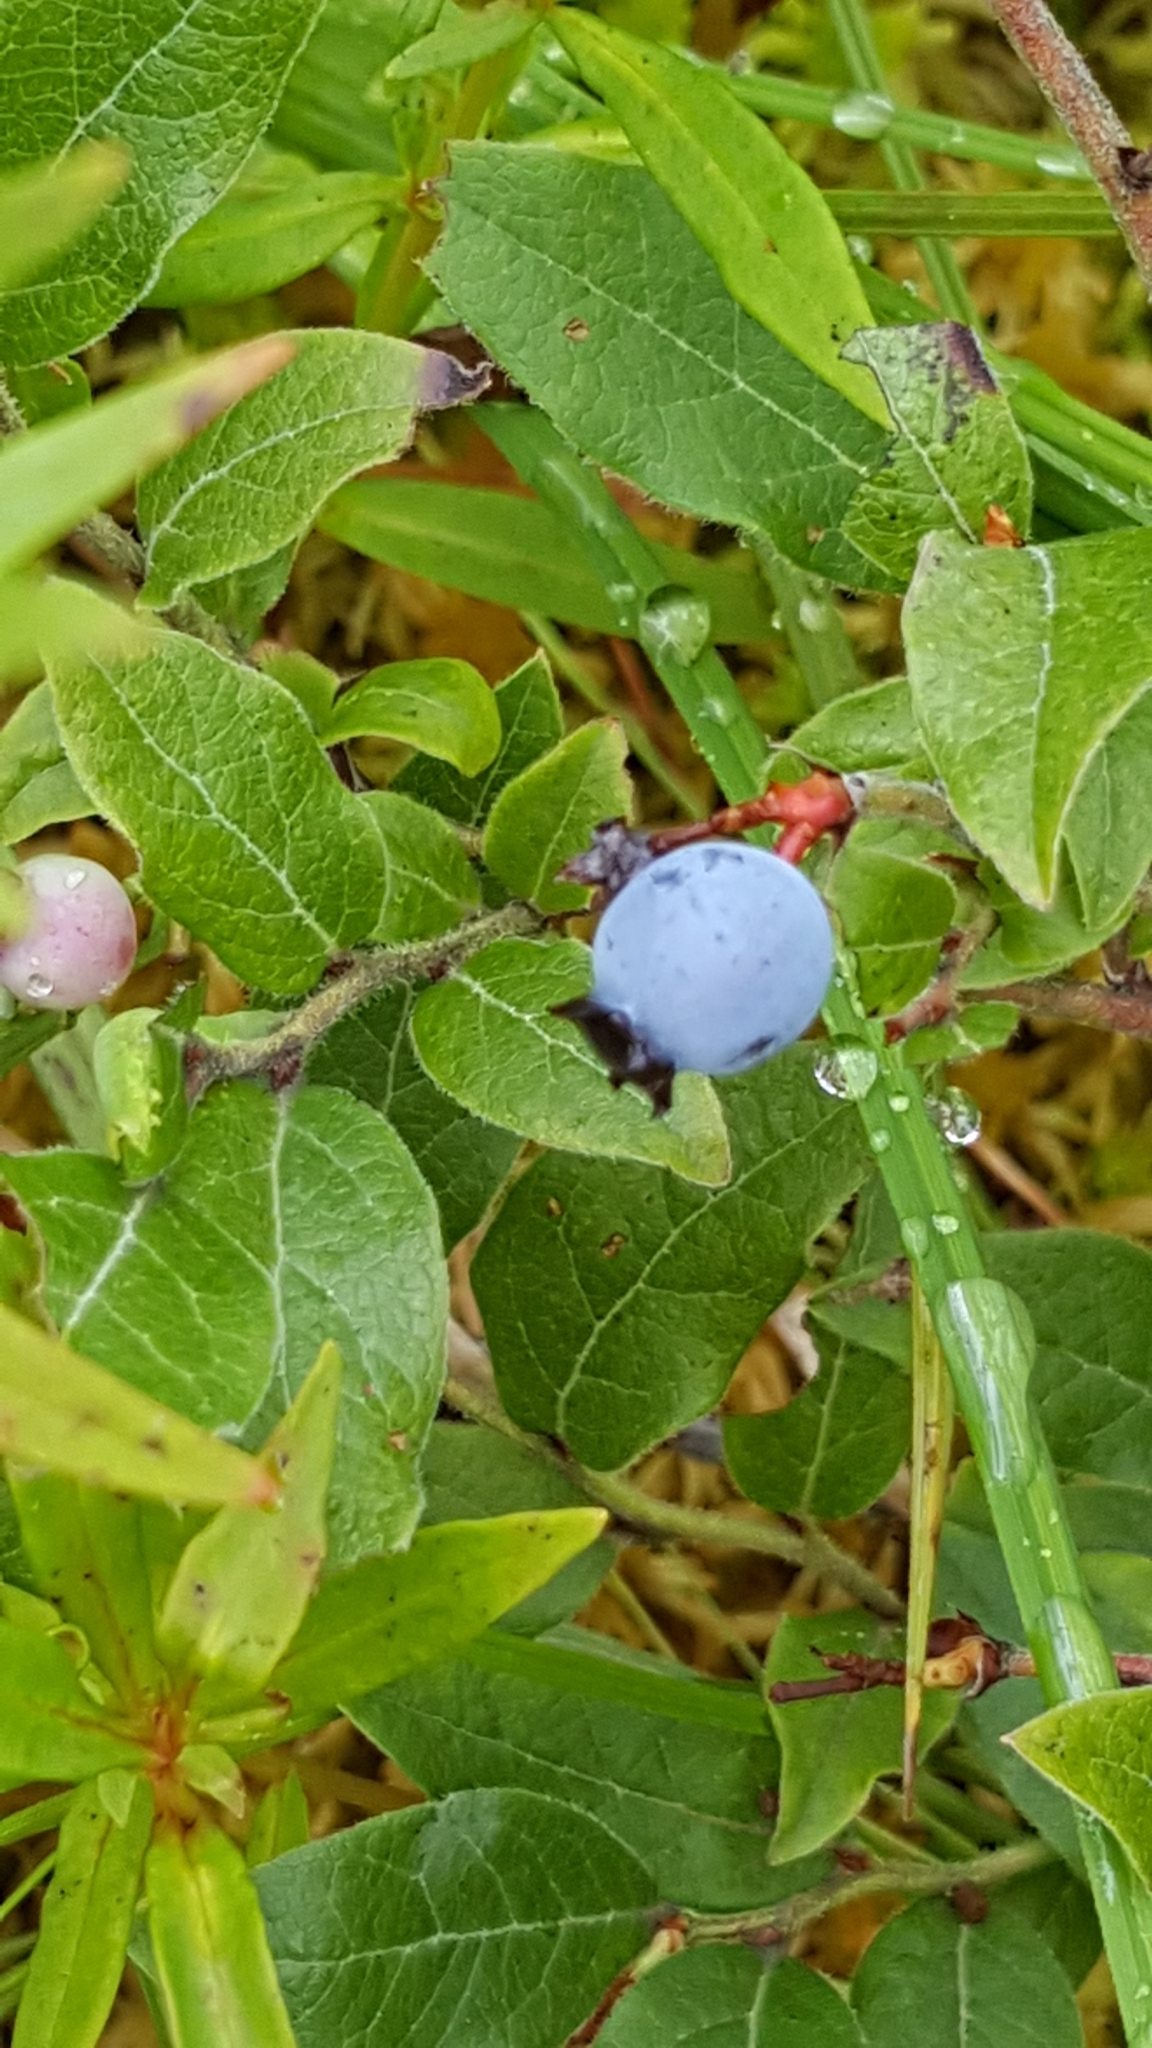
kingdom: Plantae
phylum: Tracheophyta
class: Magnoliopsida
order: Ericales
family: Ericaceae
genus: Vaccinium
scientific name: Vaccinium myrtilloides
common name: Canada blueberry
